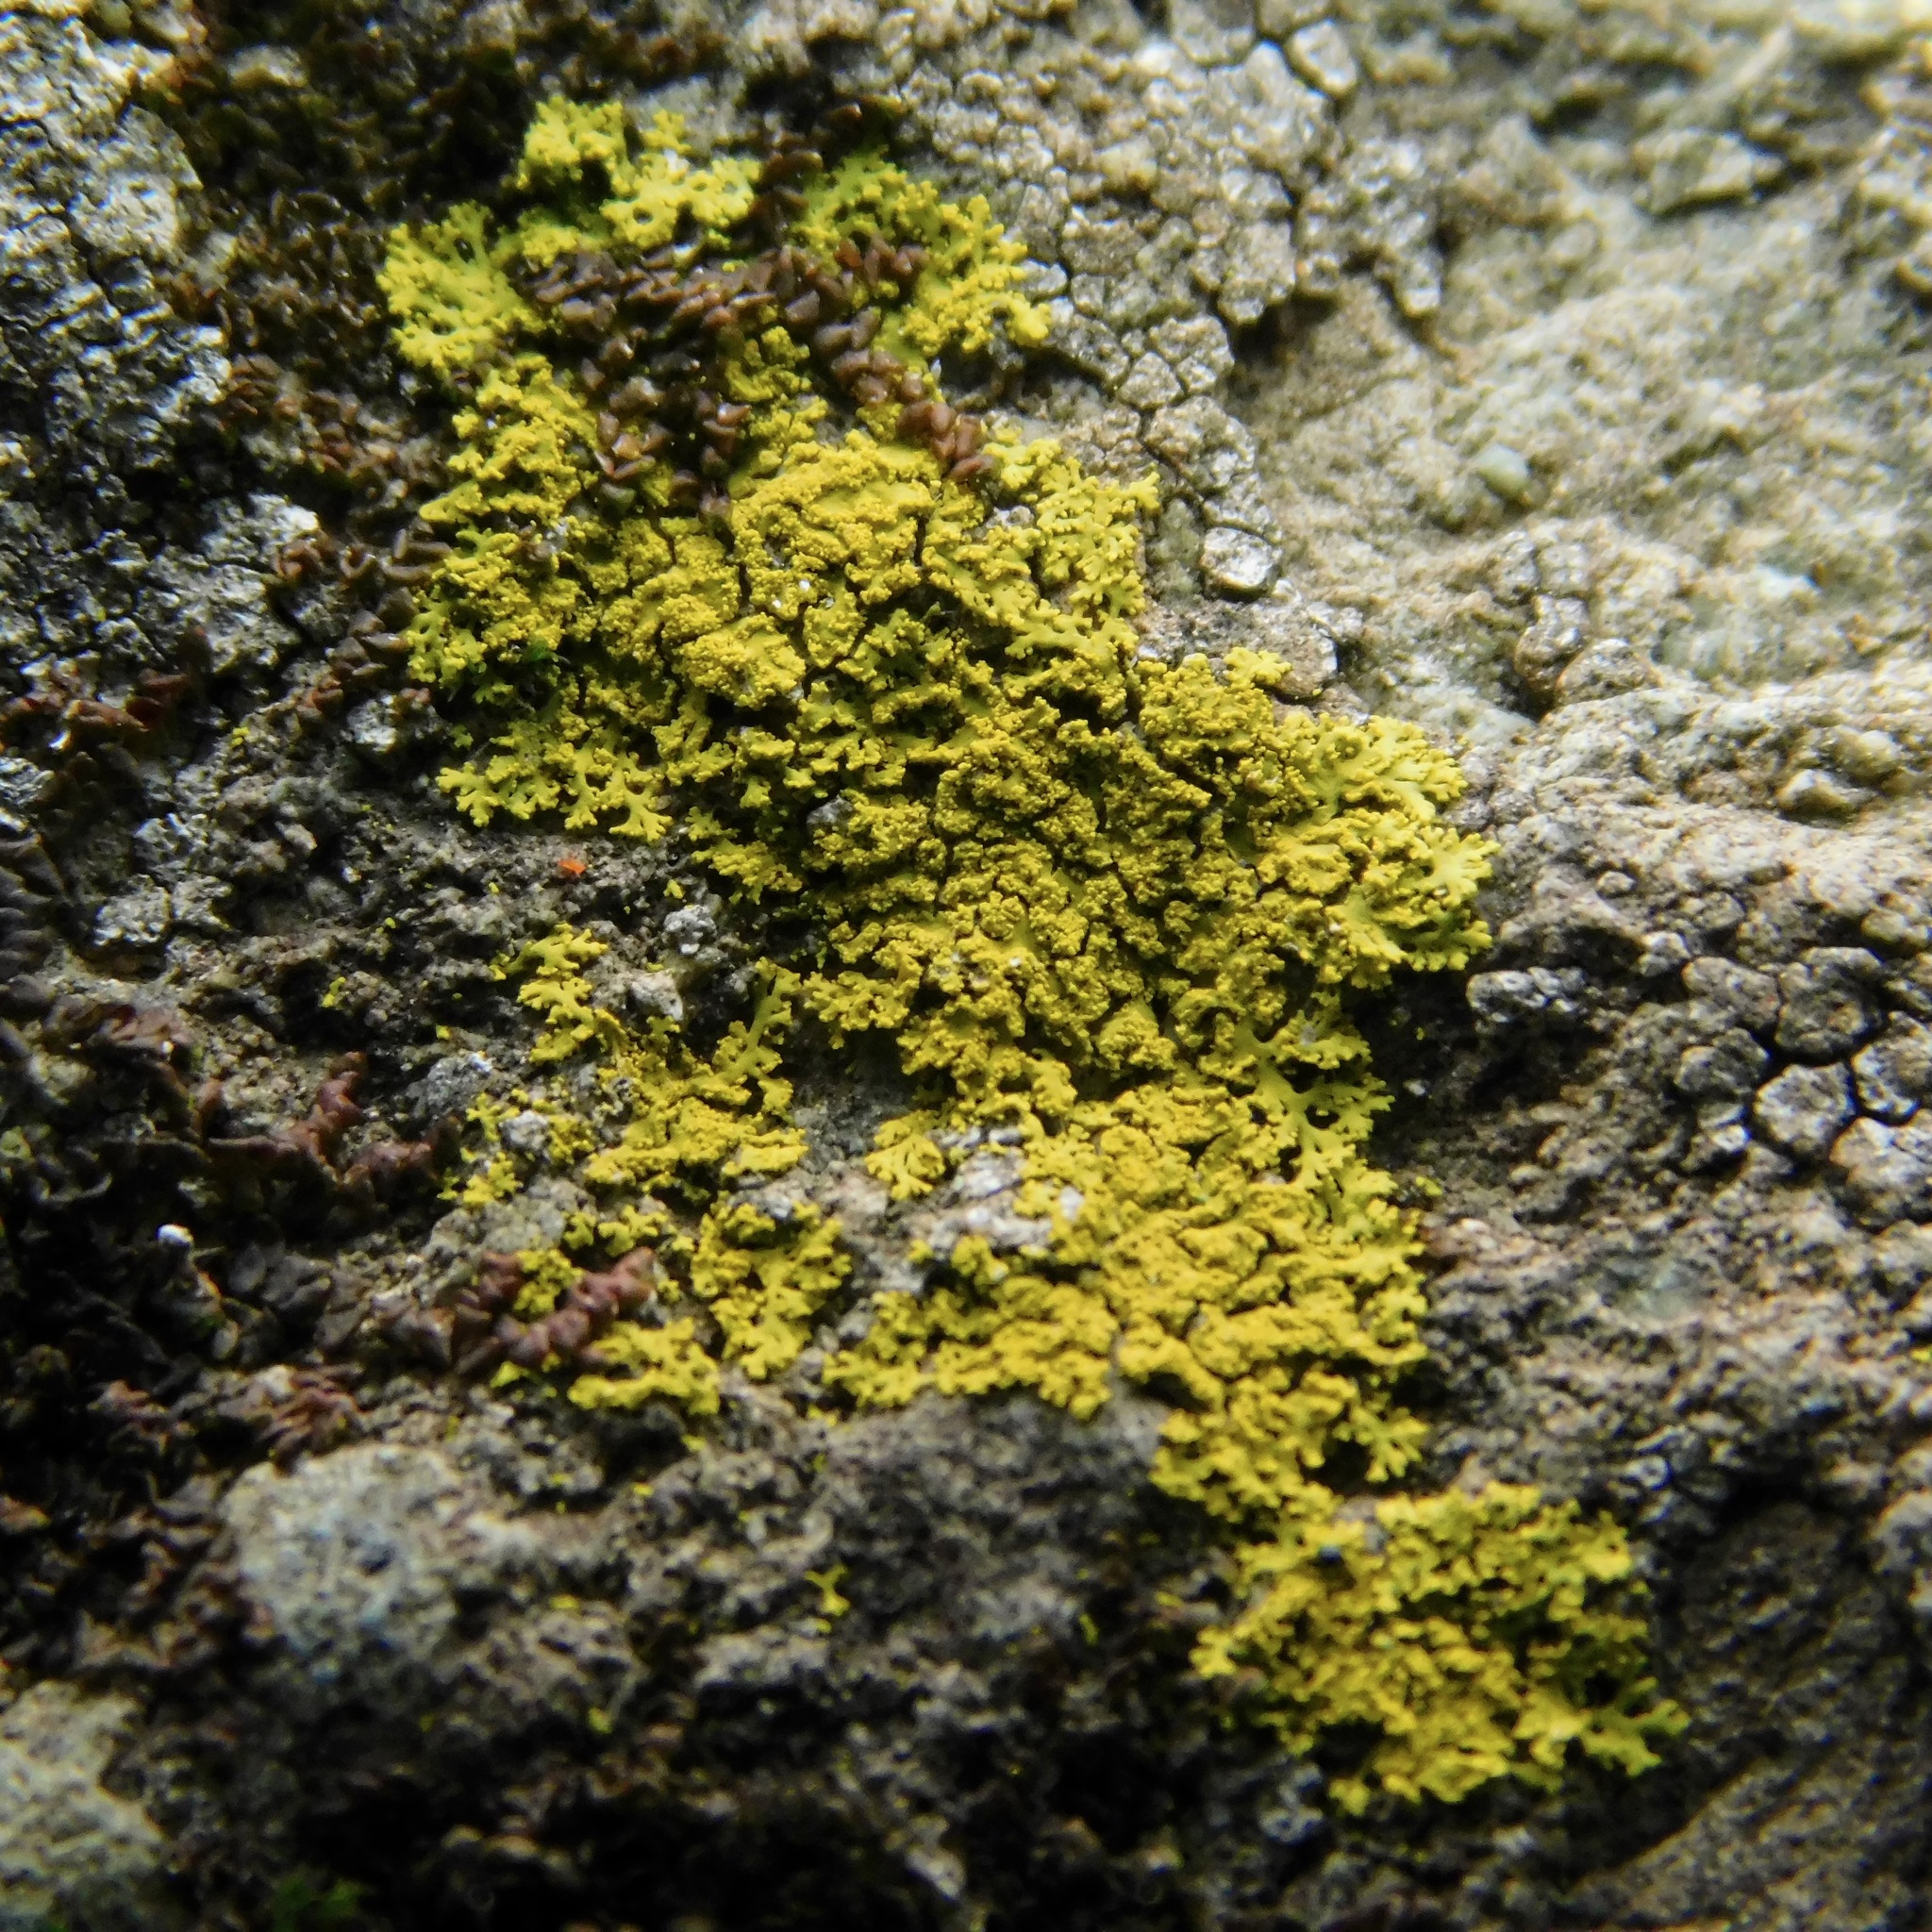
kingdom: Fungi
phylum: Ascomycota
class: Candelariomycetes
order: Candelariales
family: Candelariaceae
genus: Candelaria
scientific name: Candelaria concolor
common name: Candleflame lichen
